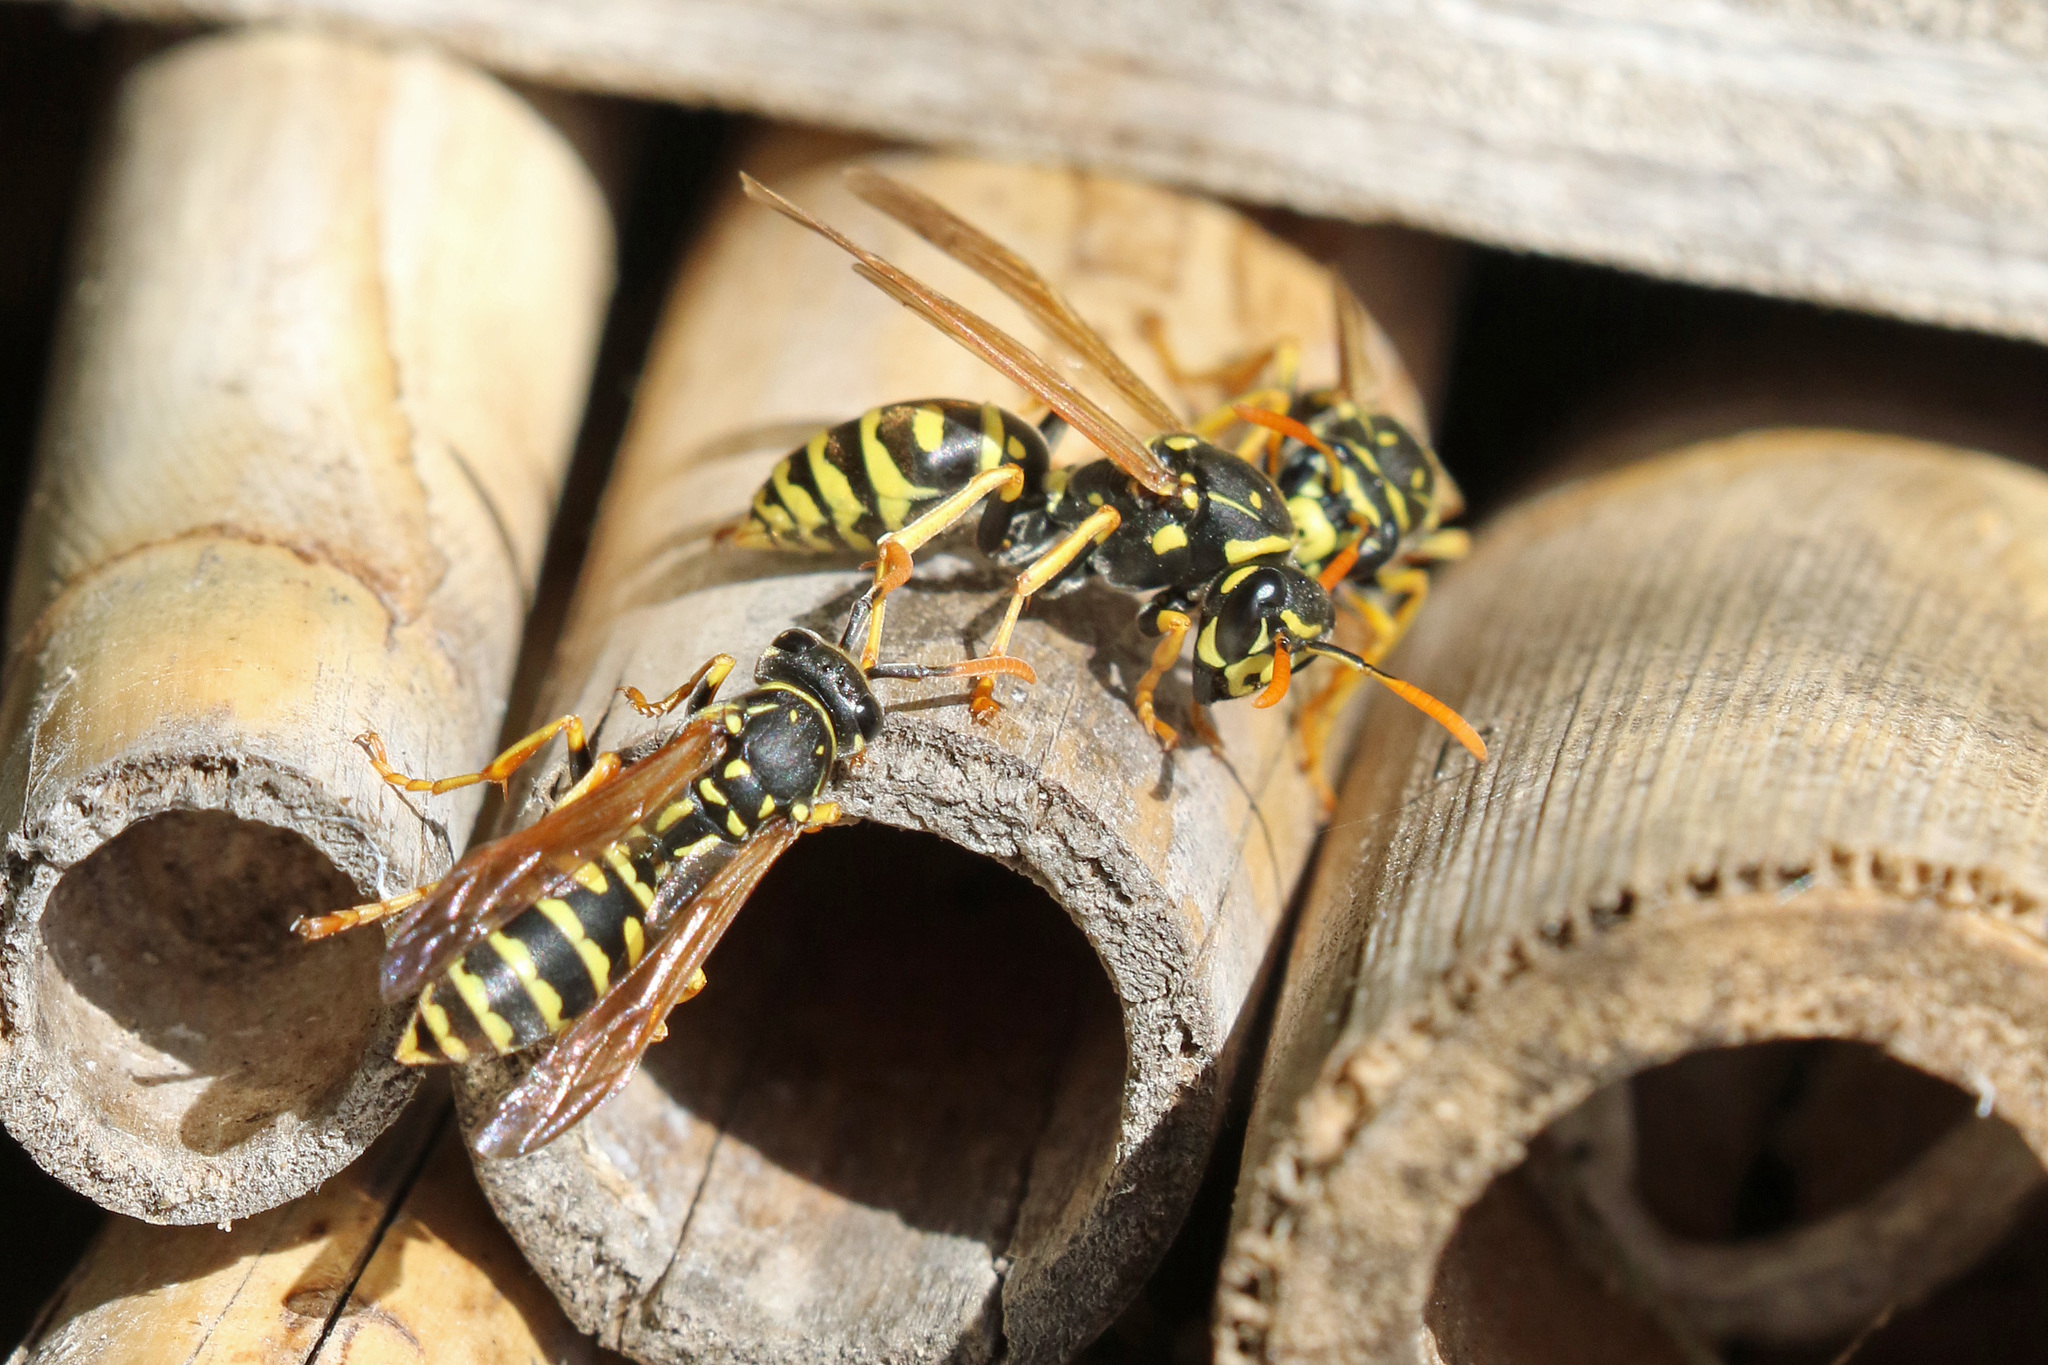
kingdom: Animalia
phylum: Arthropoda
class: Insecta
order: Hymenoptera
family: Eumenidae
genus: Polistes
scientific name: Polistes dominula
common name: Paper wasp
